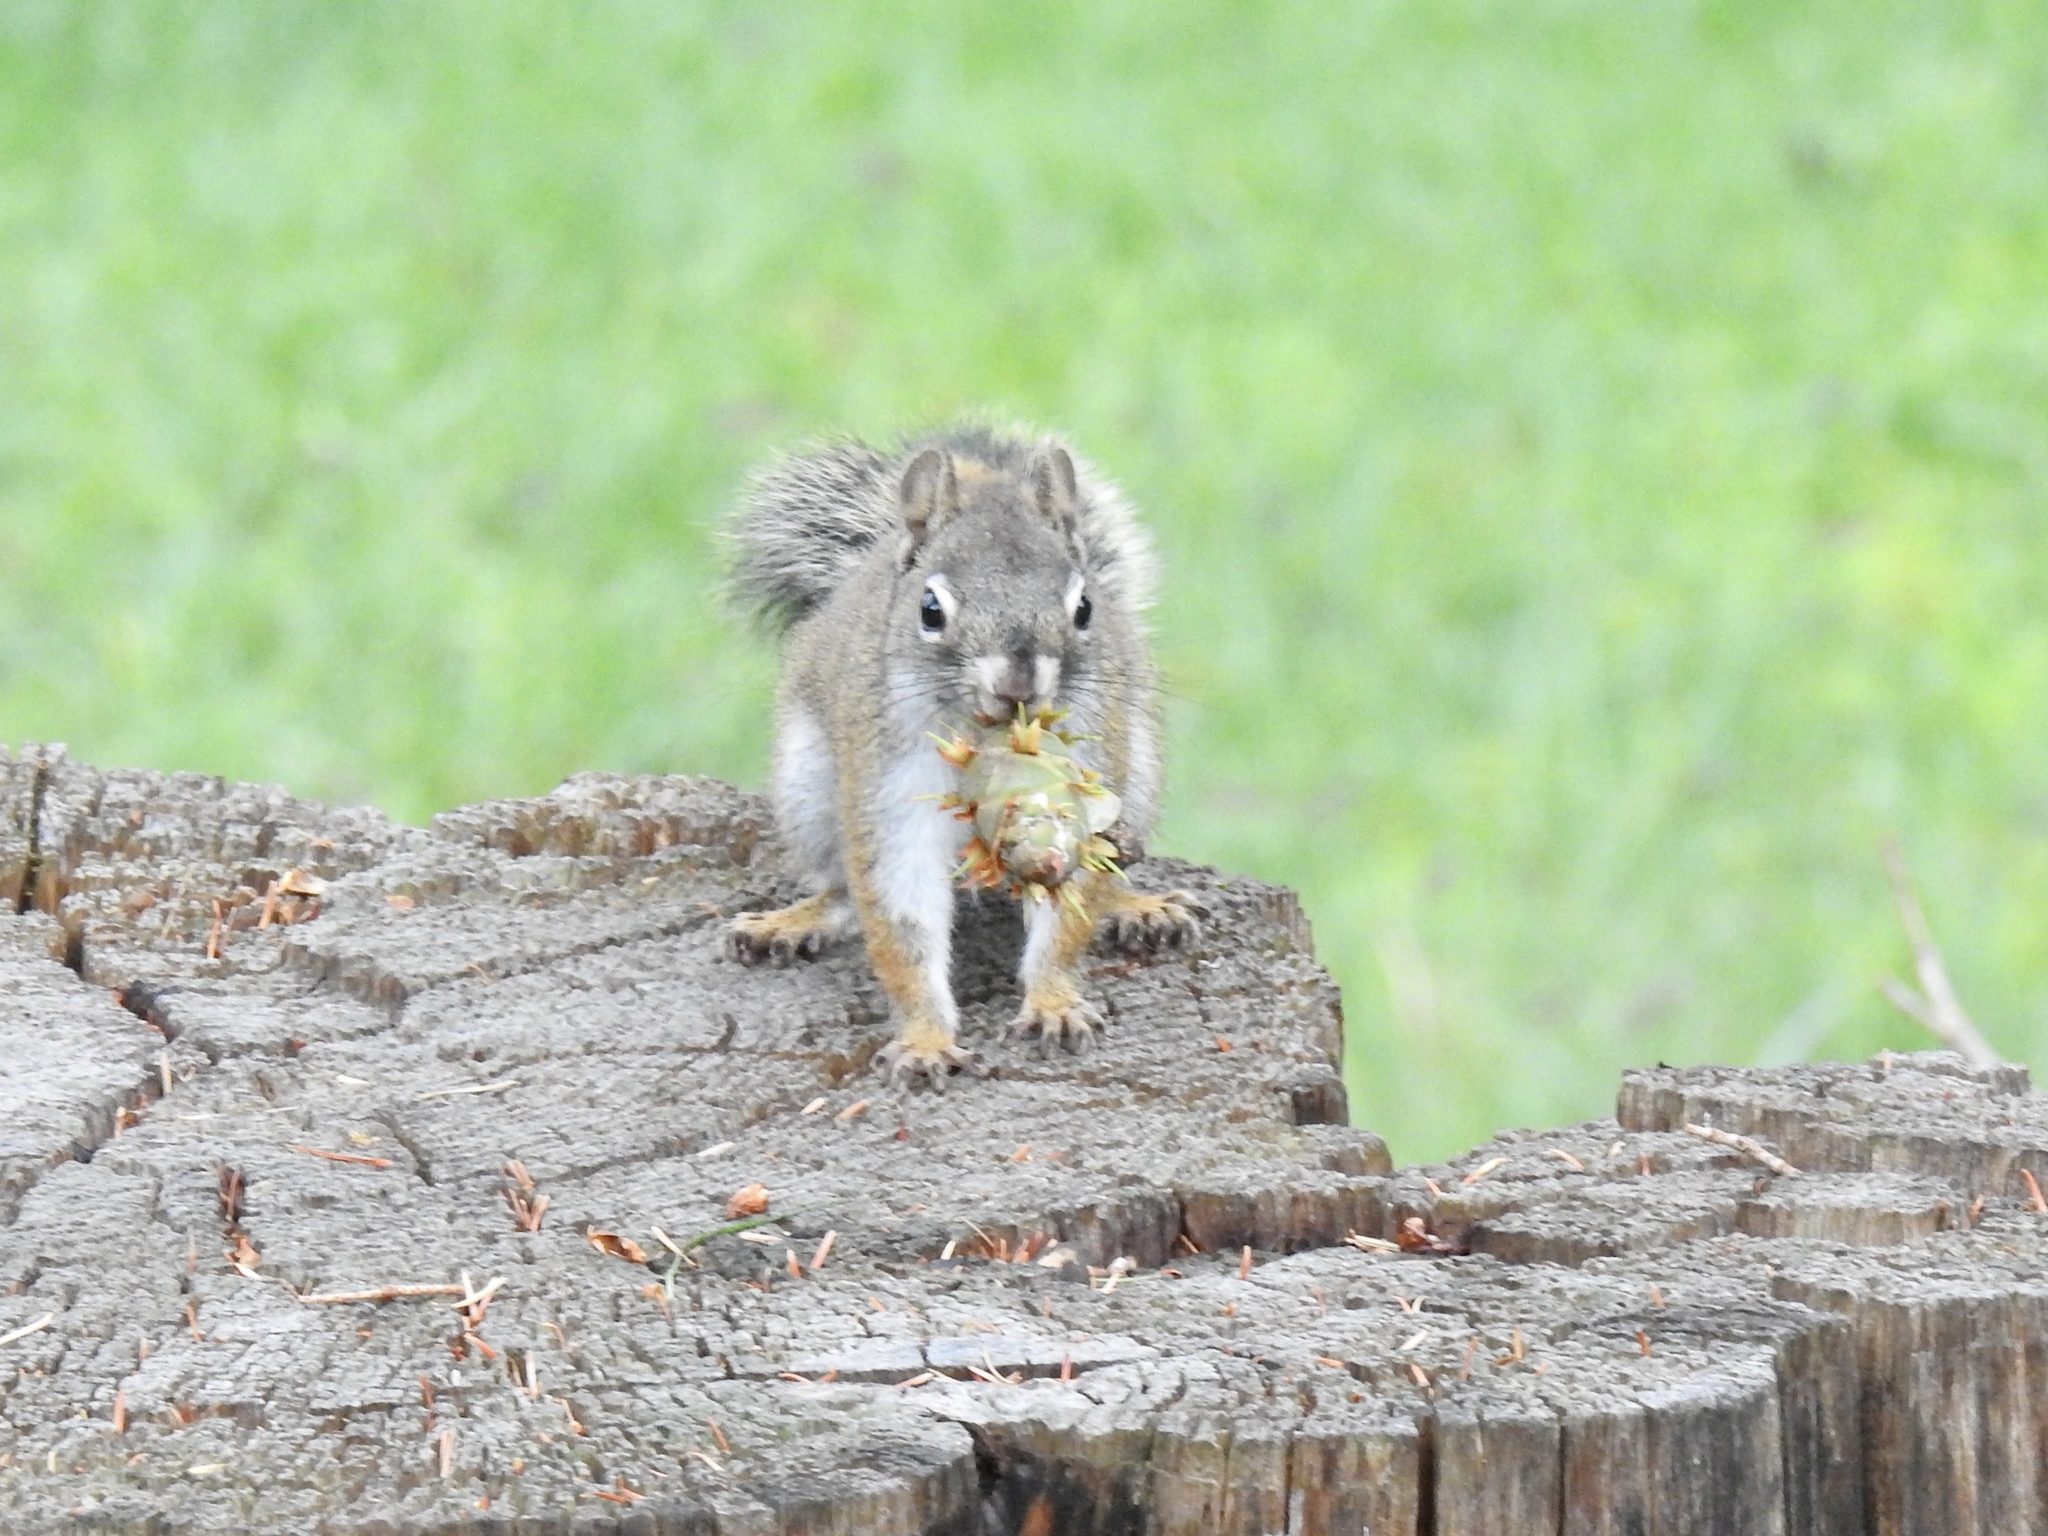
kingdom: Animalia
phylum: Chordata
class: Mammalia
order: Rodentia
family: Sciuridae
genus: Tamiasciurus
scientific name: Tamiasciurus hudsonicus
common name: Red squirrel
